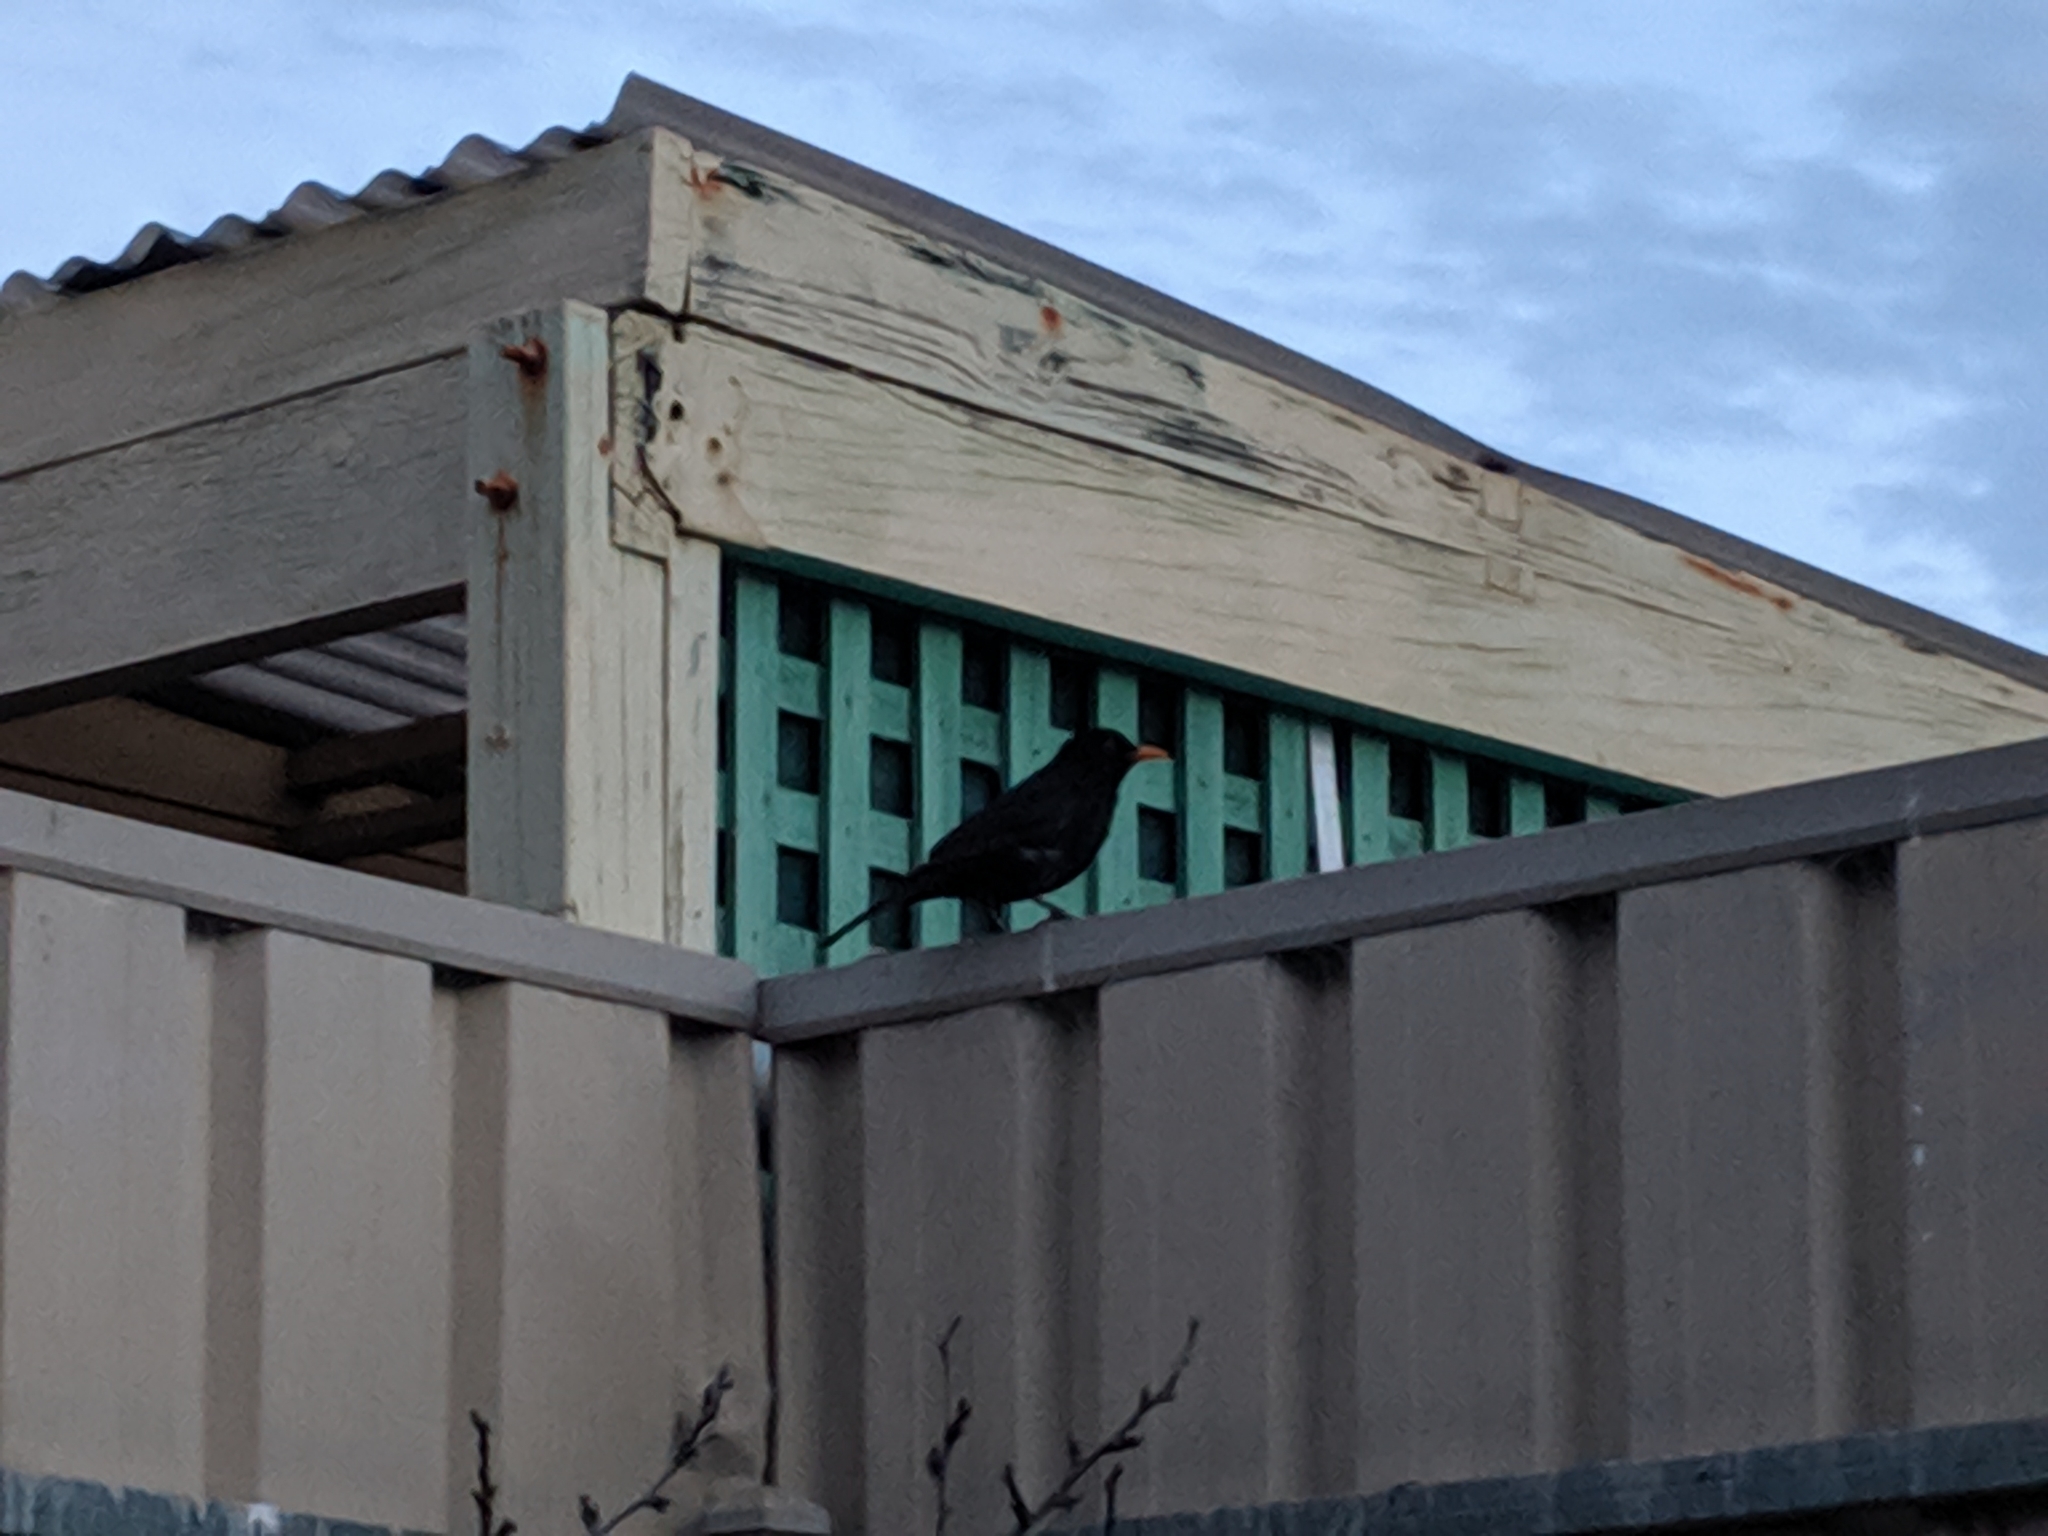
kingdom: Animalia
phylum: Chordata
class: Aves
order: Passeriformes
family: Turdidae
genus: Turdus
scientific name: Turdus merula
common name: Common blackbird
